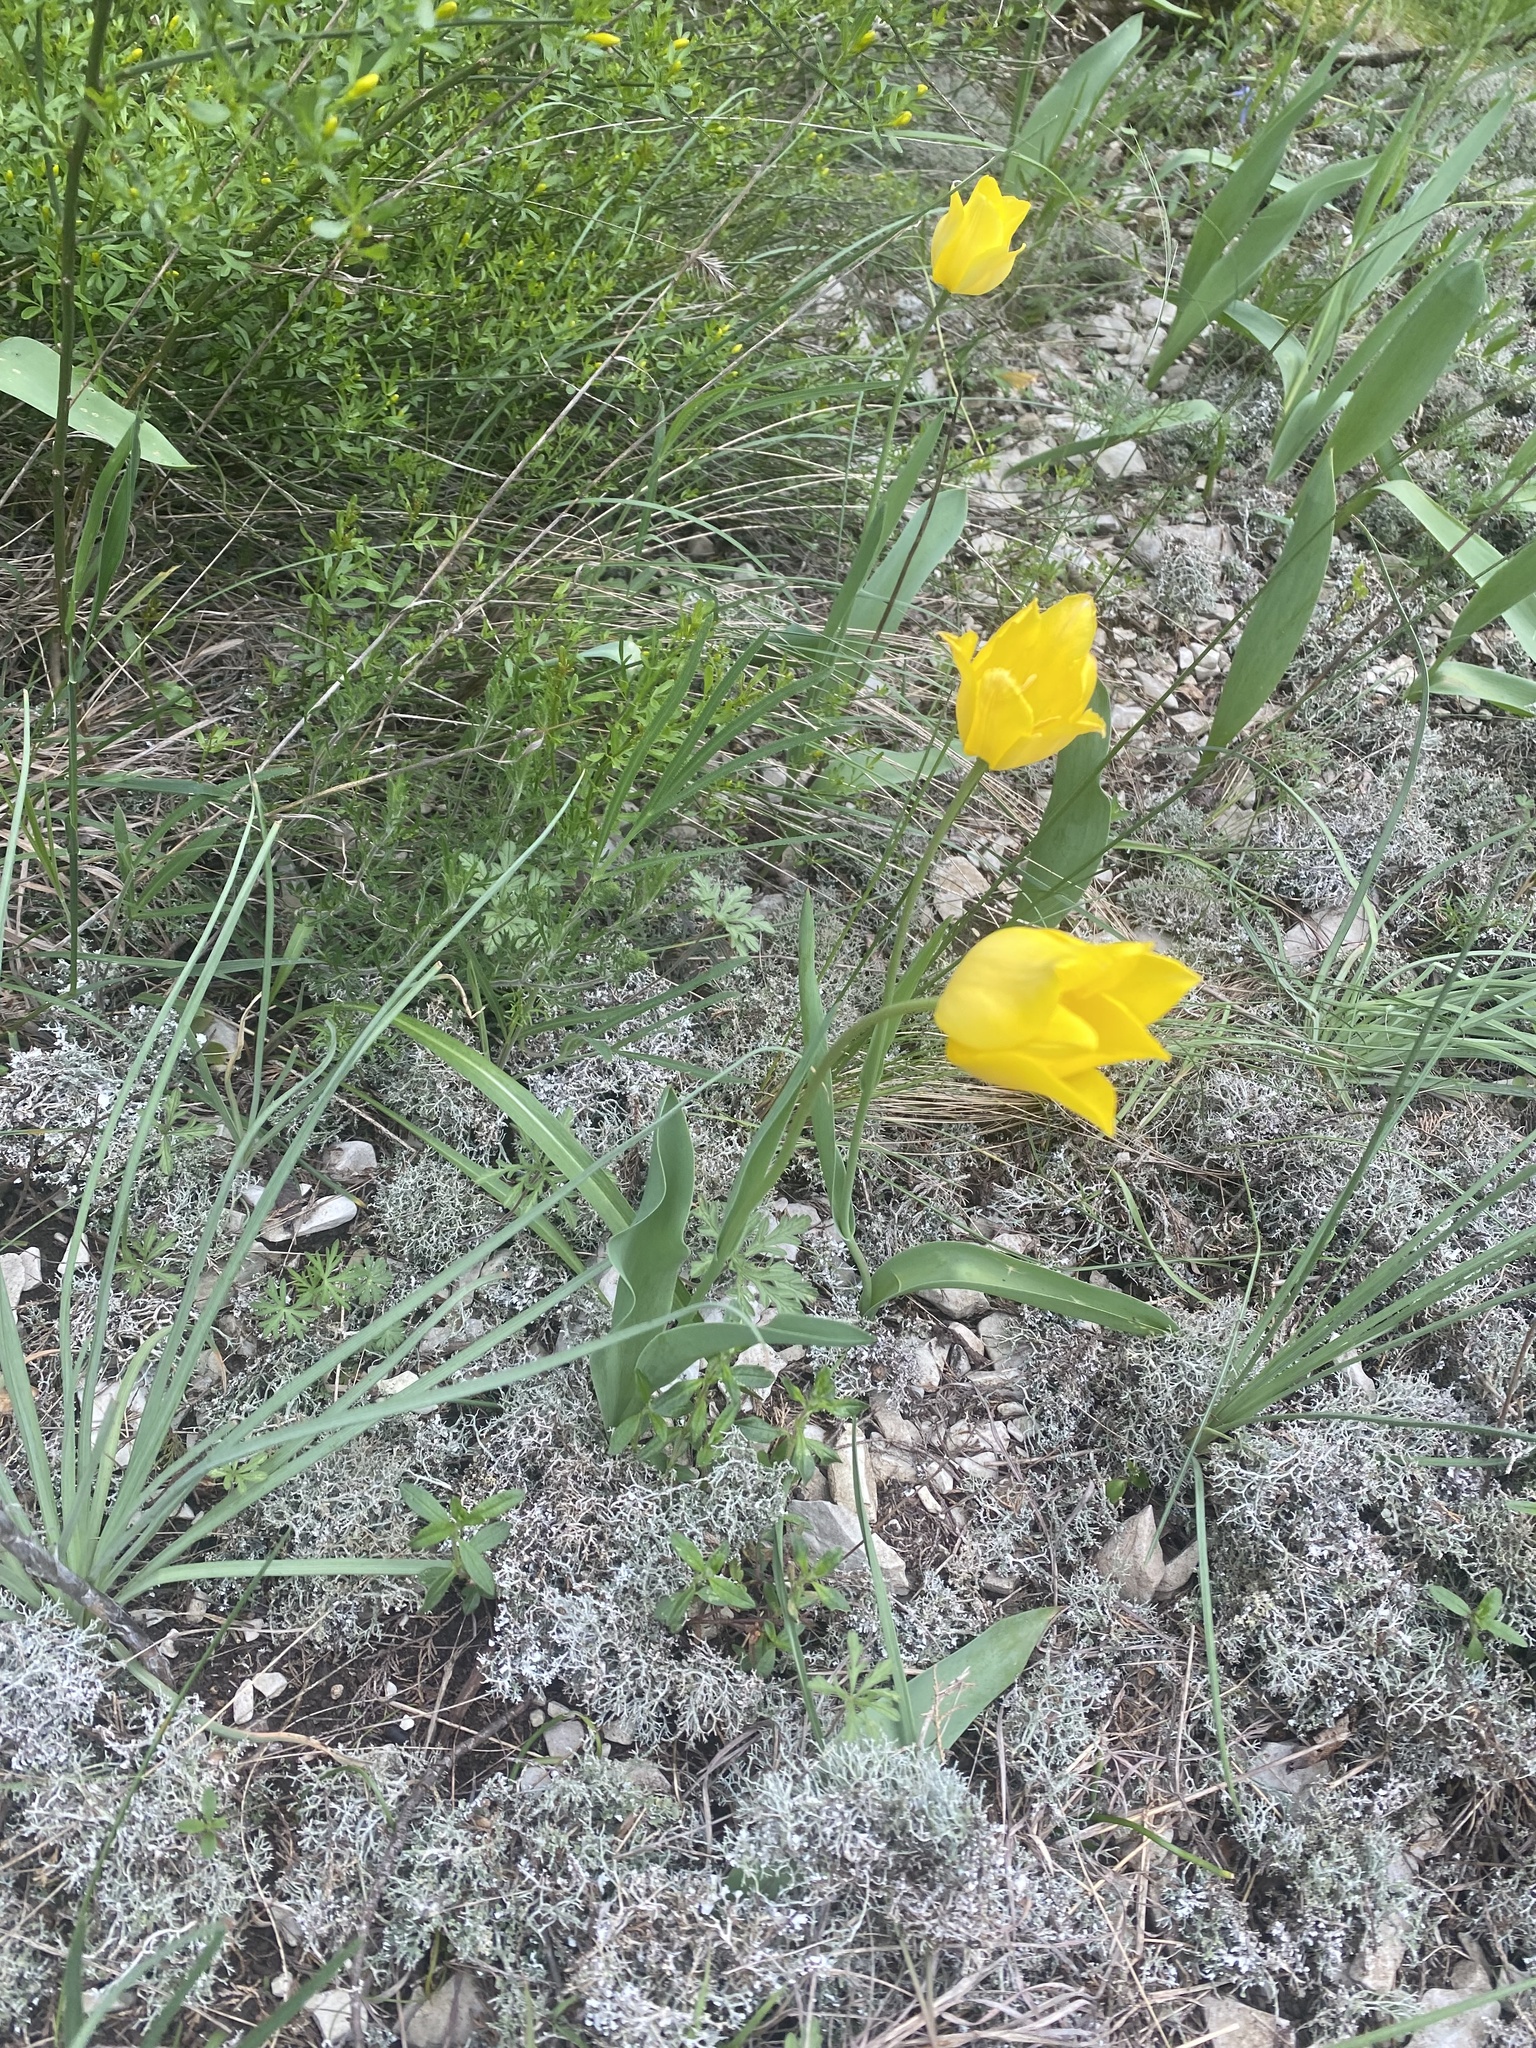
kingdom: Plantae
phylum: Tracheophyta
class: Liliopsida
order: Liliales
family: Liliaceae
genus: Tulipa
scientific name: Tulipa suaveolens
